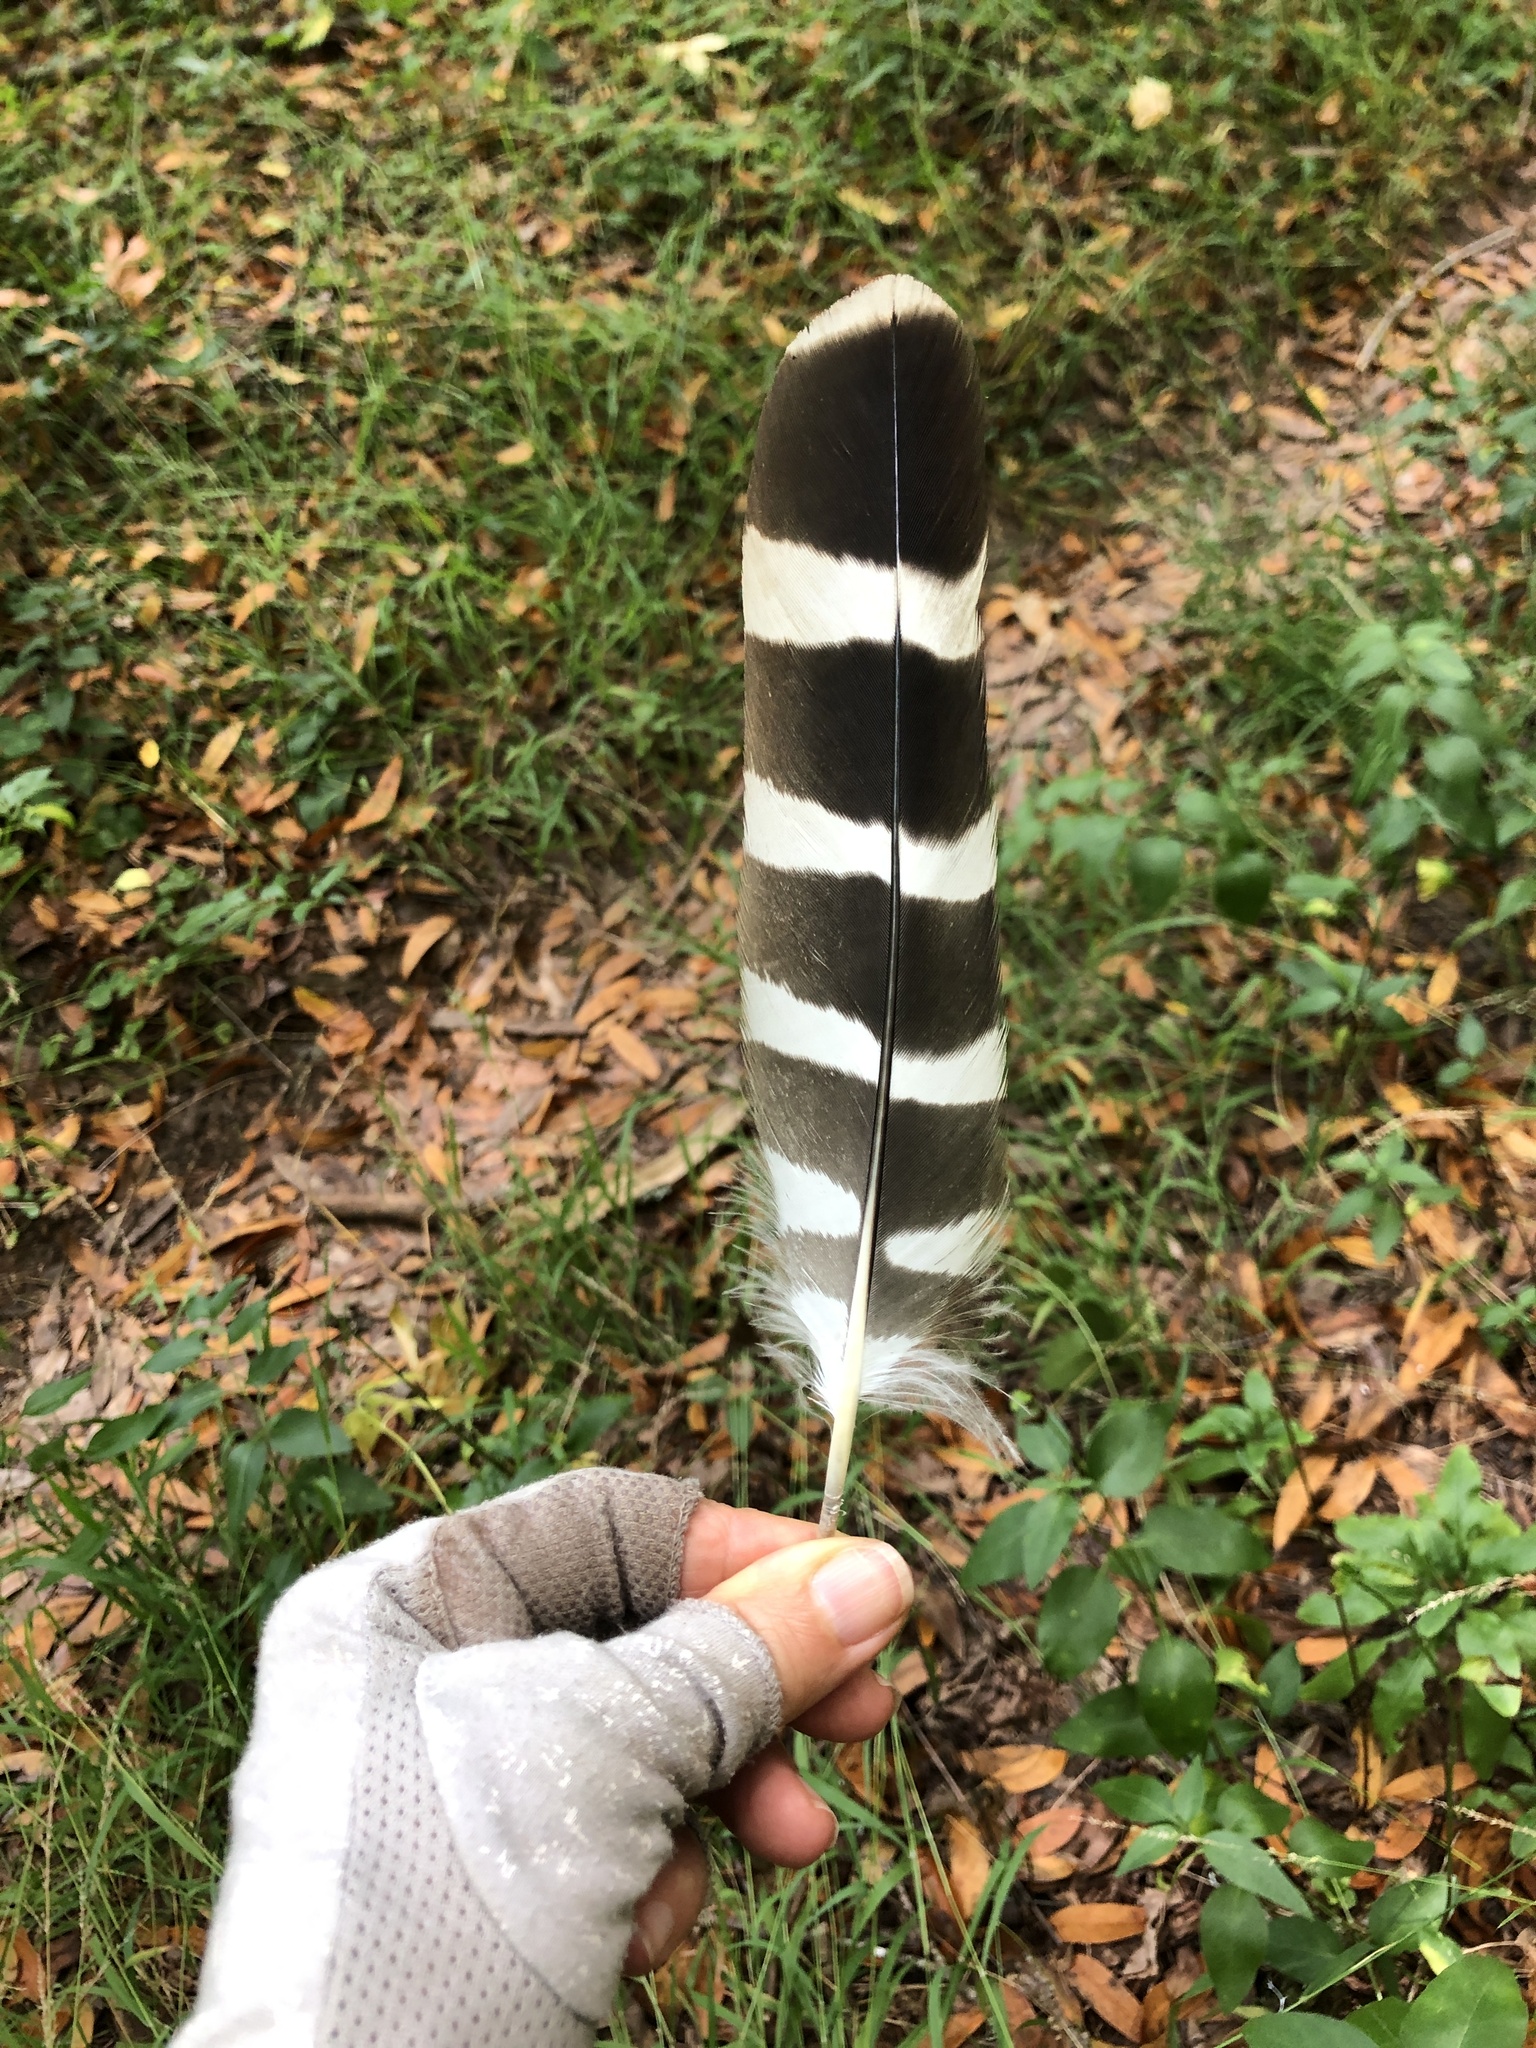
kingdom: Animalia
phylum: Chordata
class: Aves
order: Accipitriformes
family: Accipitridae
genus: Buteo
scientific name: Buteo lineatus
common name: Red-shouldered hawk
